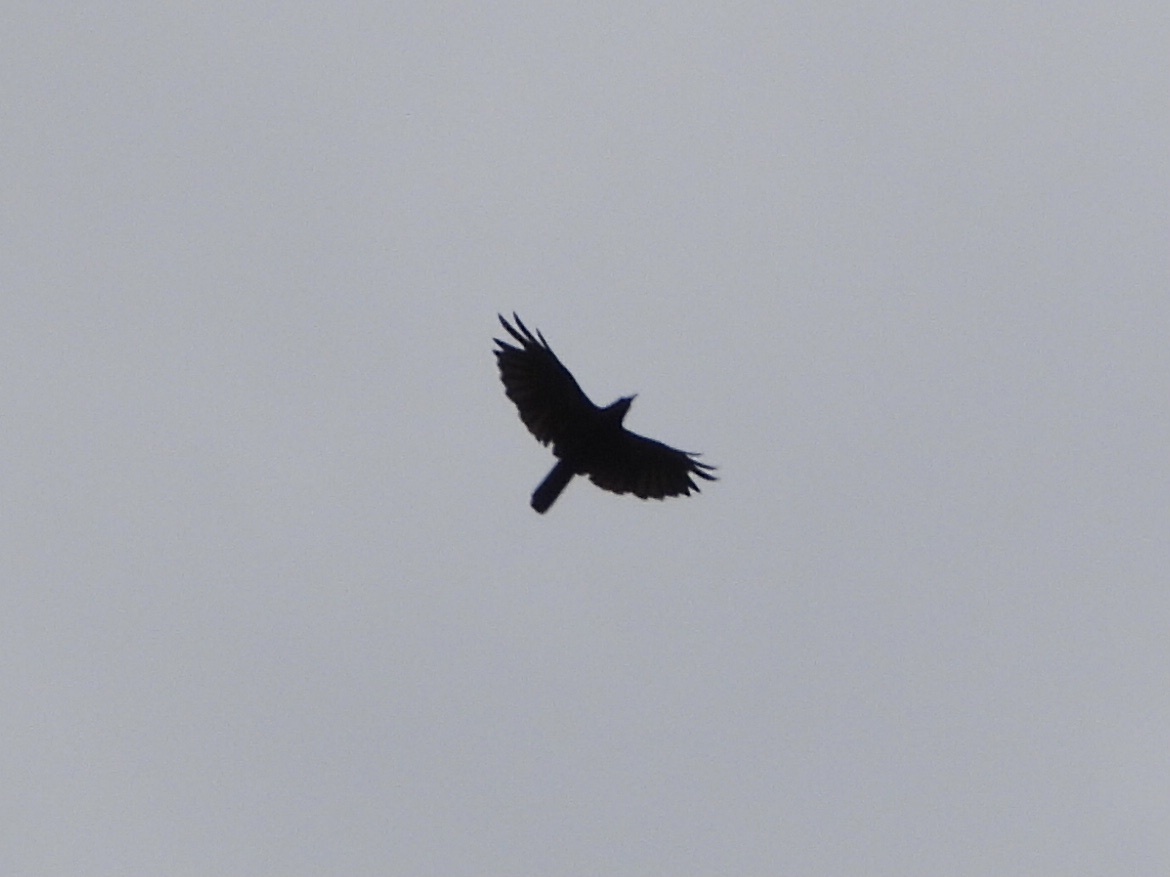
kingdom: Animalia
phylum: Chordata
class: Aves
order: Passeriformes
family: Corvidae
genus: Corvus
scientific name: Corvus brachyrhynchos
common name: American crow
